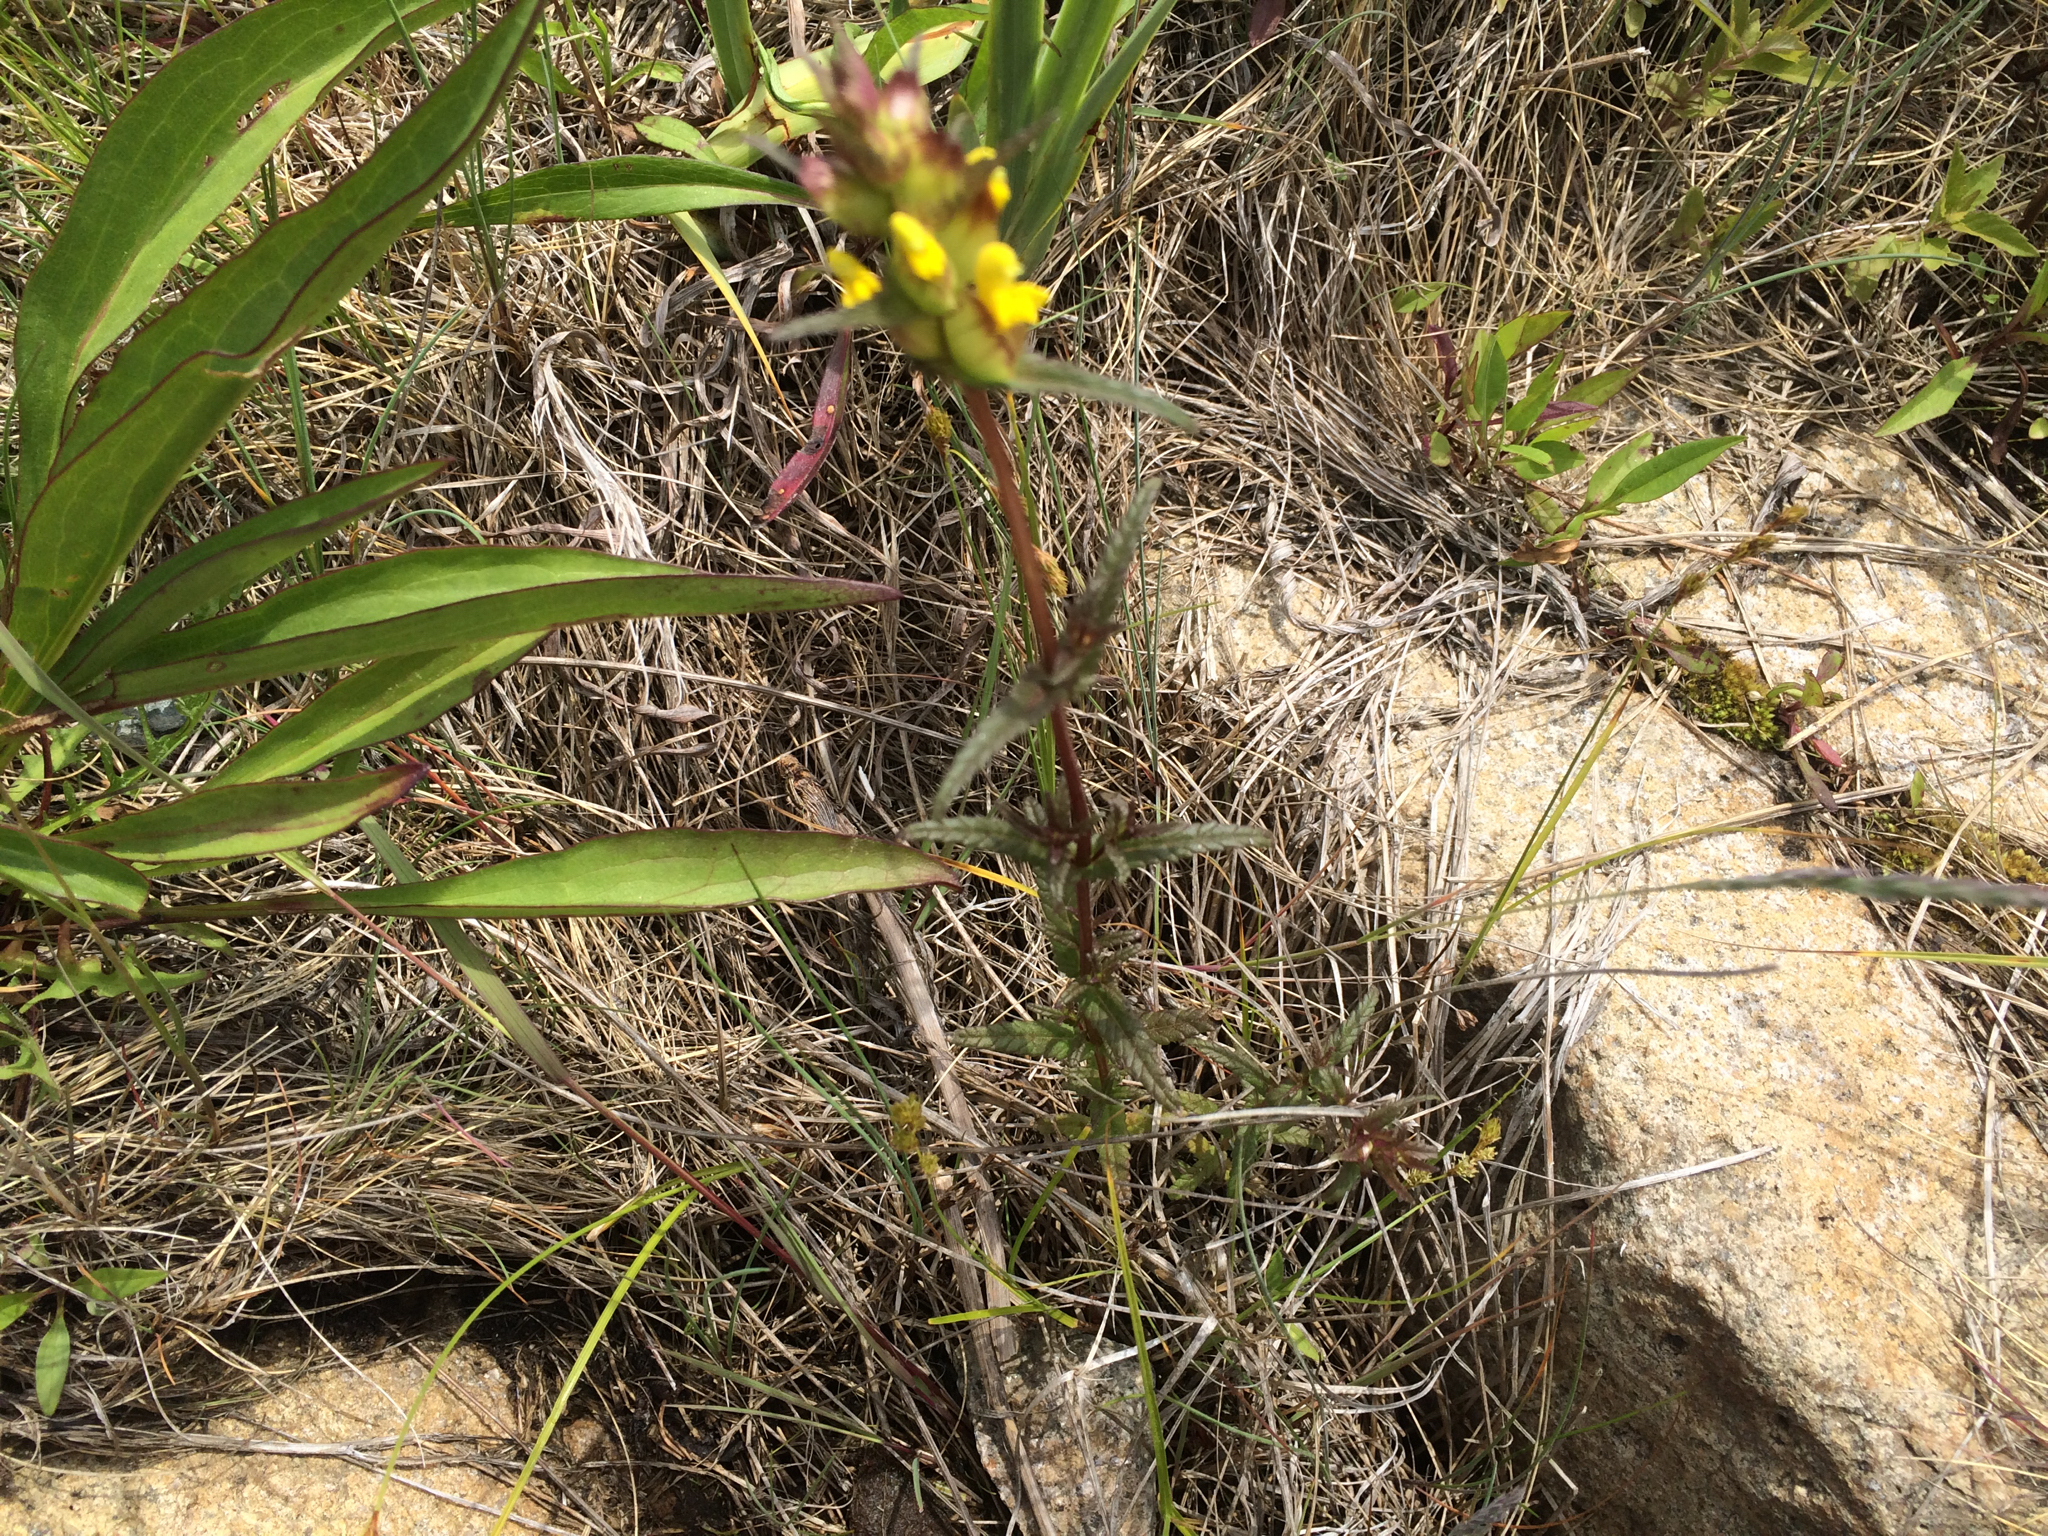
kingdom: Plantae
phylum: Tracheophyta
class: Magnoliopsida
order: Lamiales
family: Orobanchaceae
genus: Rhinanthus
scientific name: Rhinanthus minor
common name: Yellow-rattle
